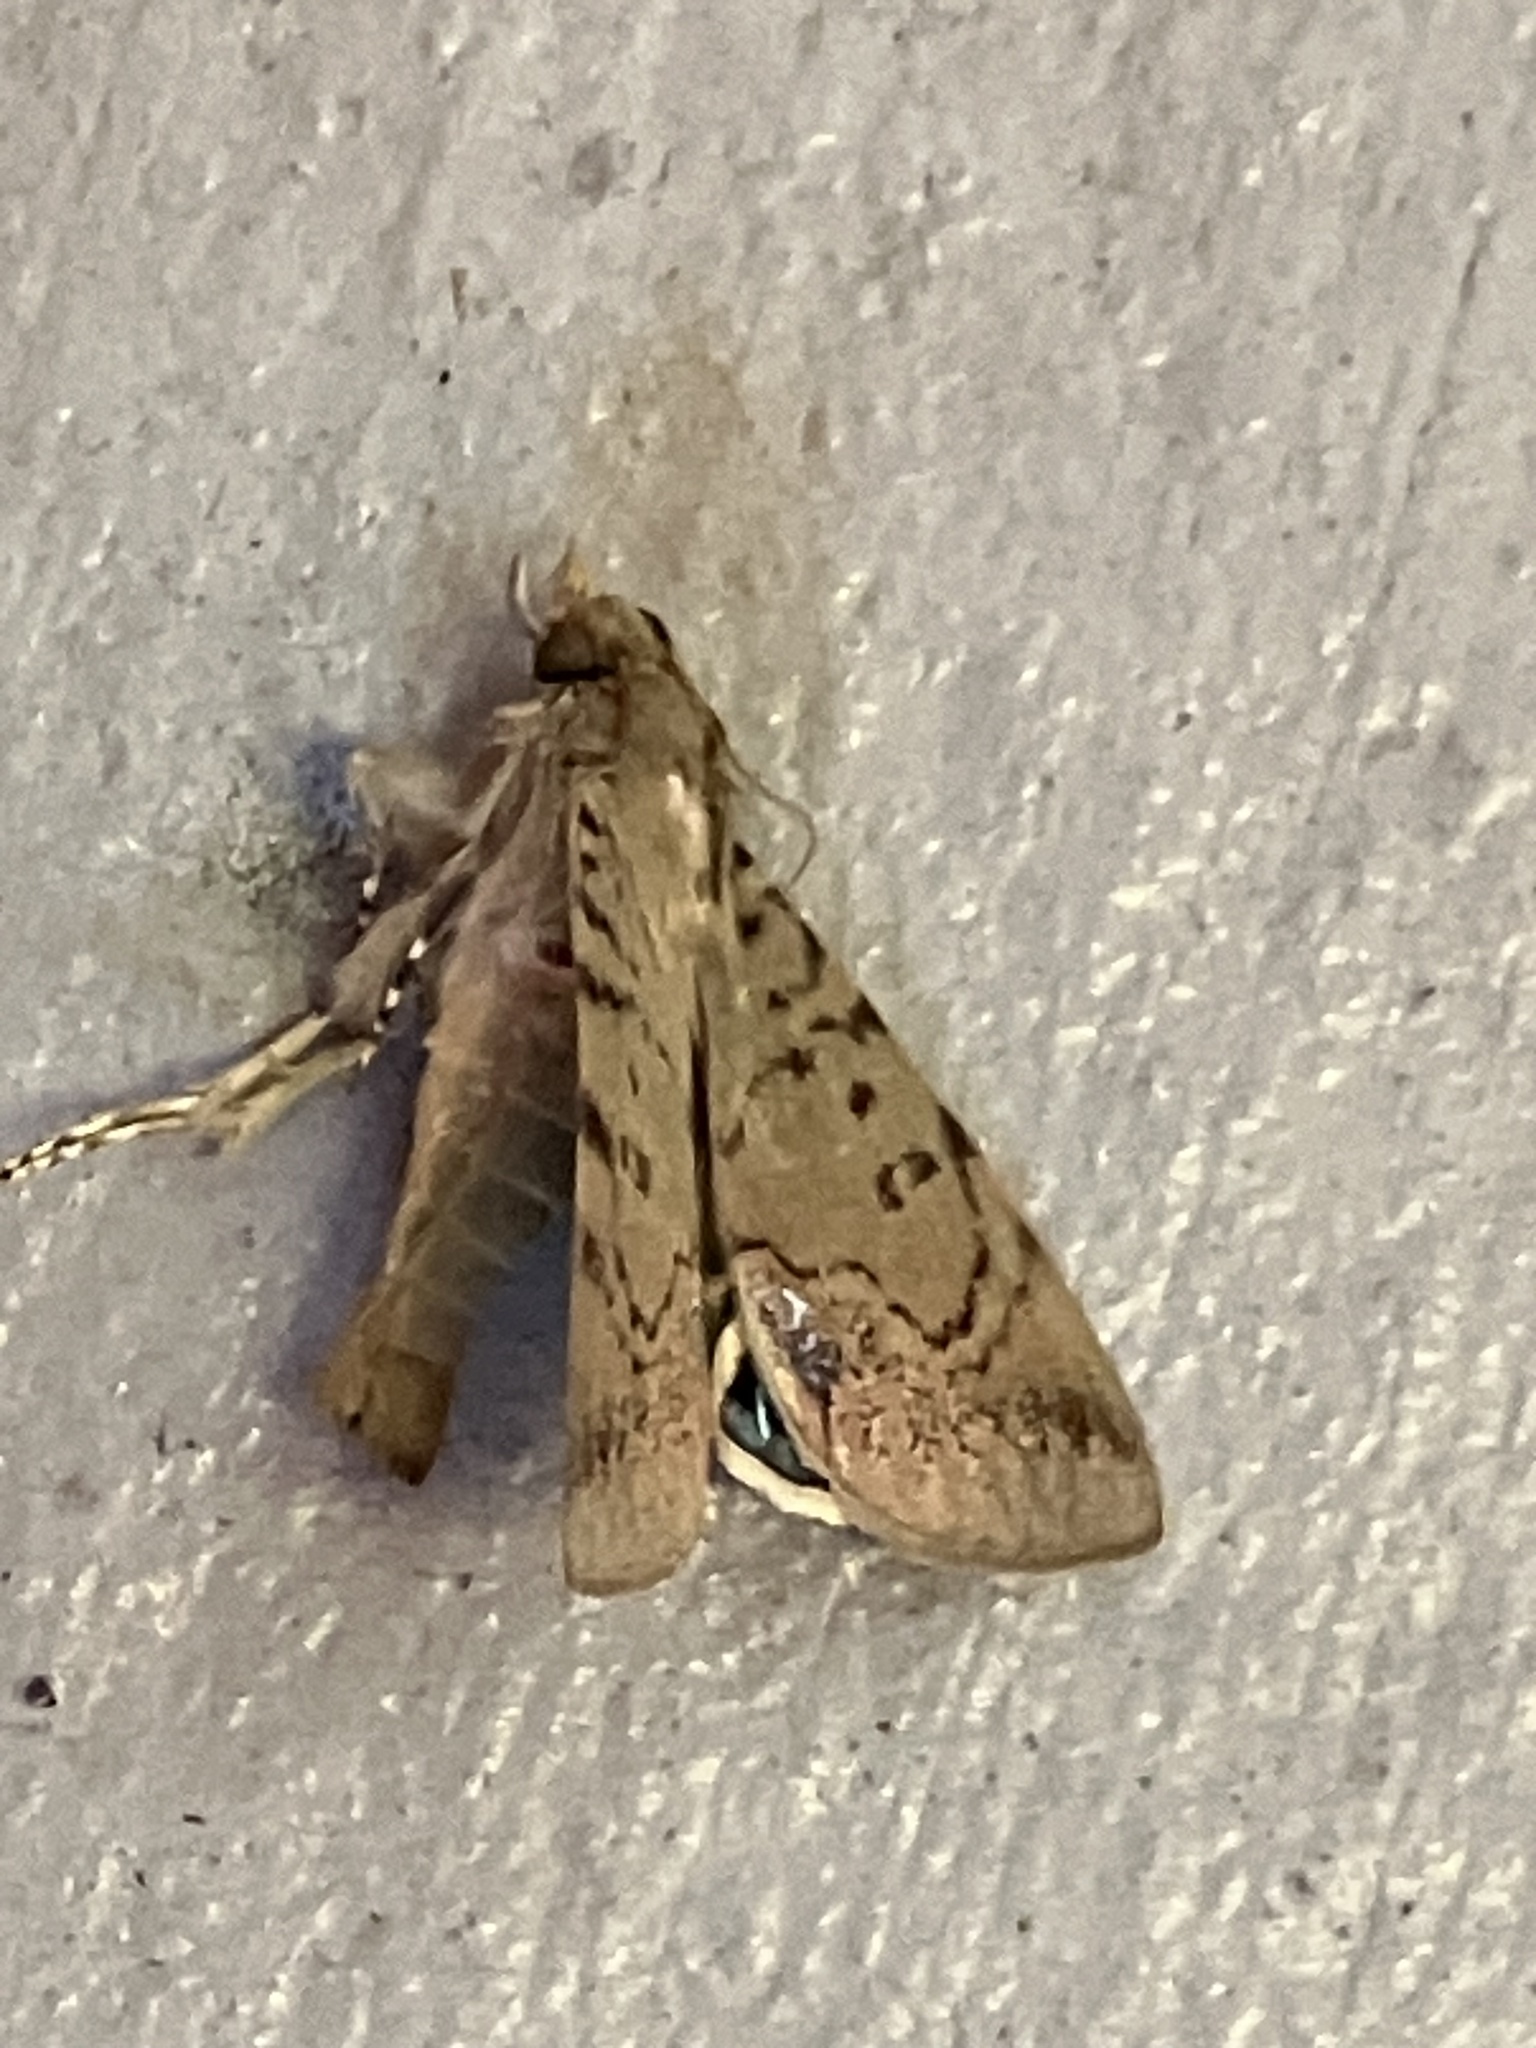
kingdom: Animalia
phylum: Arthropoda
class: Insecta
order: Lepidoptera
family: Erebidae
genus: Litoprosopus
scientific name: Litoprosopus futilis
